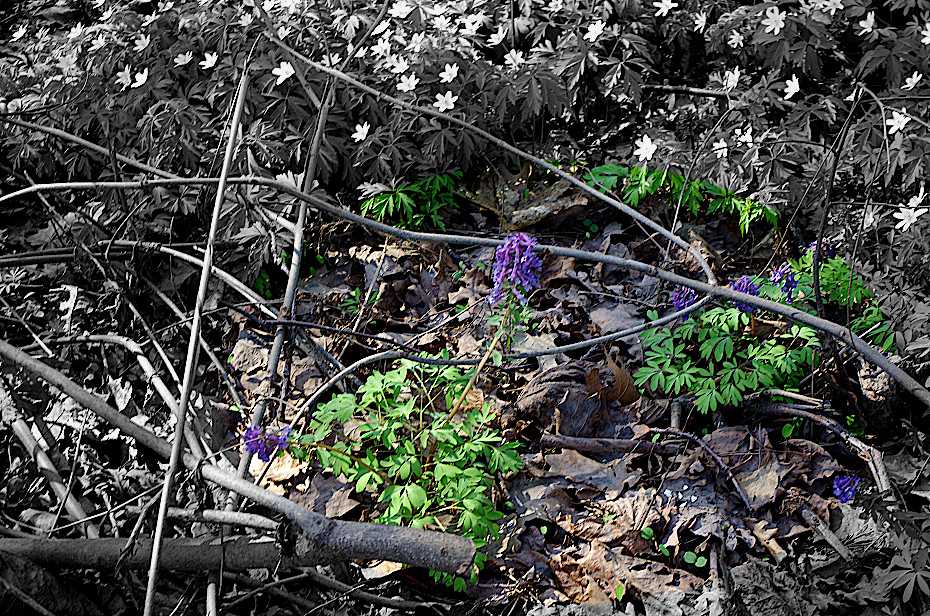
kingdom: Plantae
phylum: Tracheophyta
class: Magnoliopsida
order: Ranunculales
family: Papaveraceae
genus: Corydalis
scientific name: Corydalis solida
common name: Bird-in-a-bush
